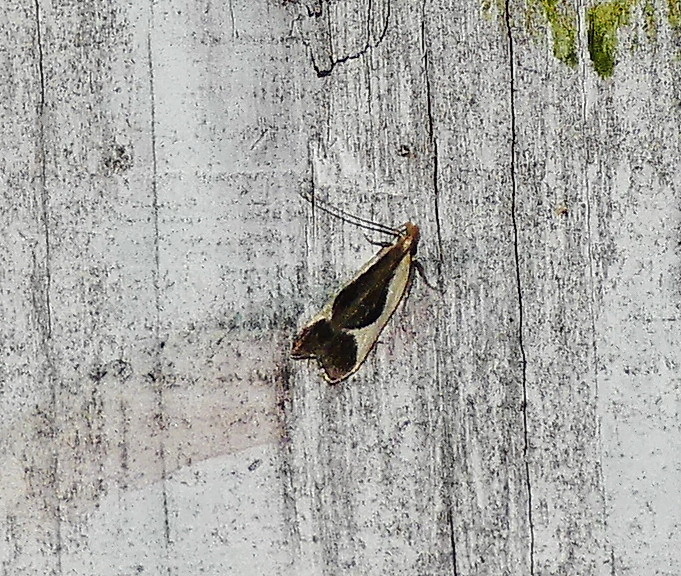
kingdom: Animalia
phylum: Arthropoda
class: Insecta
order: Lepidoptera
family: Gelechiidae
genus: Dichomeris
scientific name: Dichomeris flavocostella
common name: Cream-edged dichomeris moth
